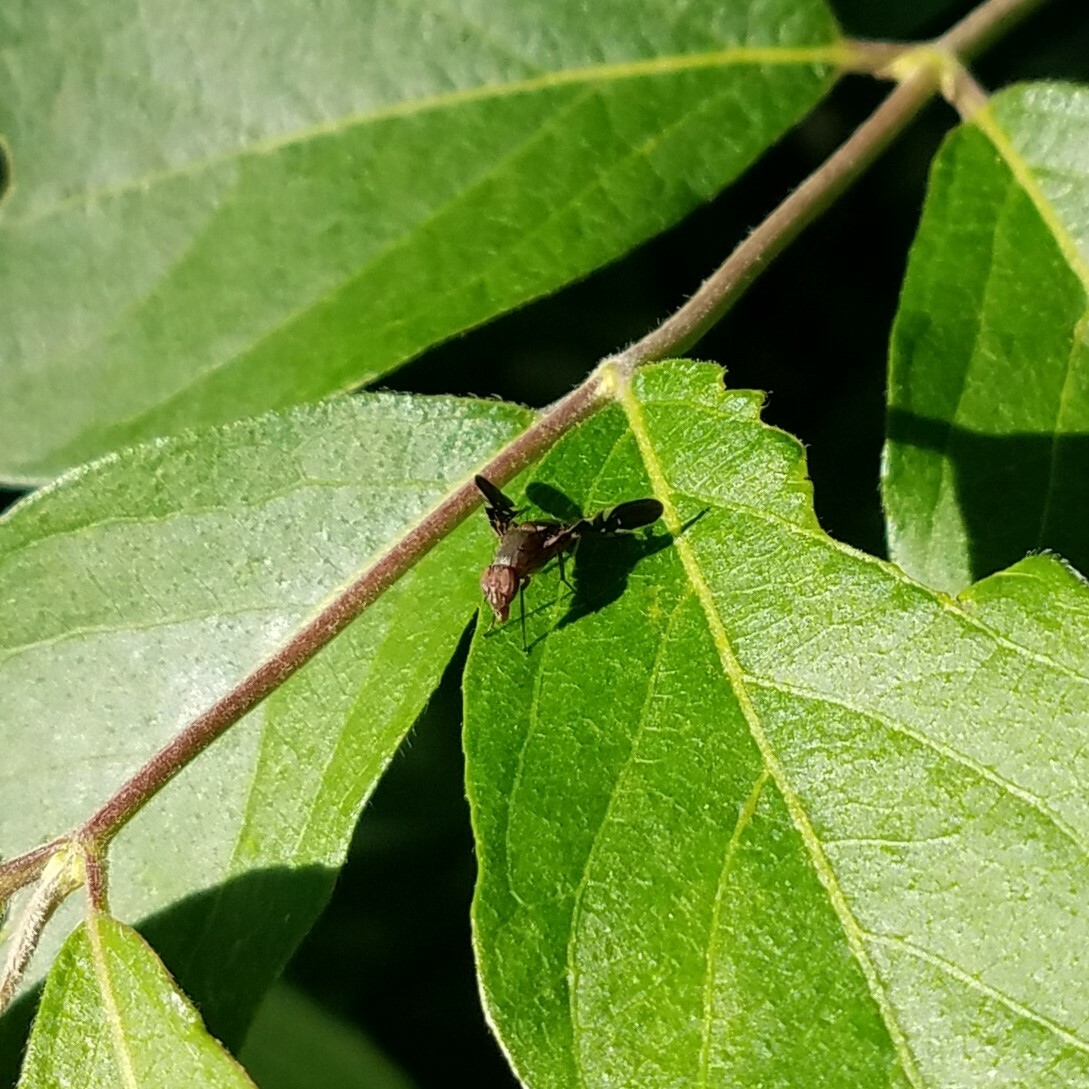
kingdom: Animalia
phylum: Arthropoda
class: Insecta
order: Diptera
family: Ulidiidae
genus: Delphinia
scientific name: Delphinia picta
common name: Common picture-winged fly
